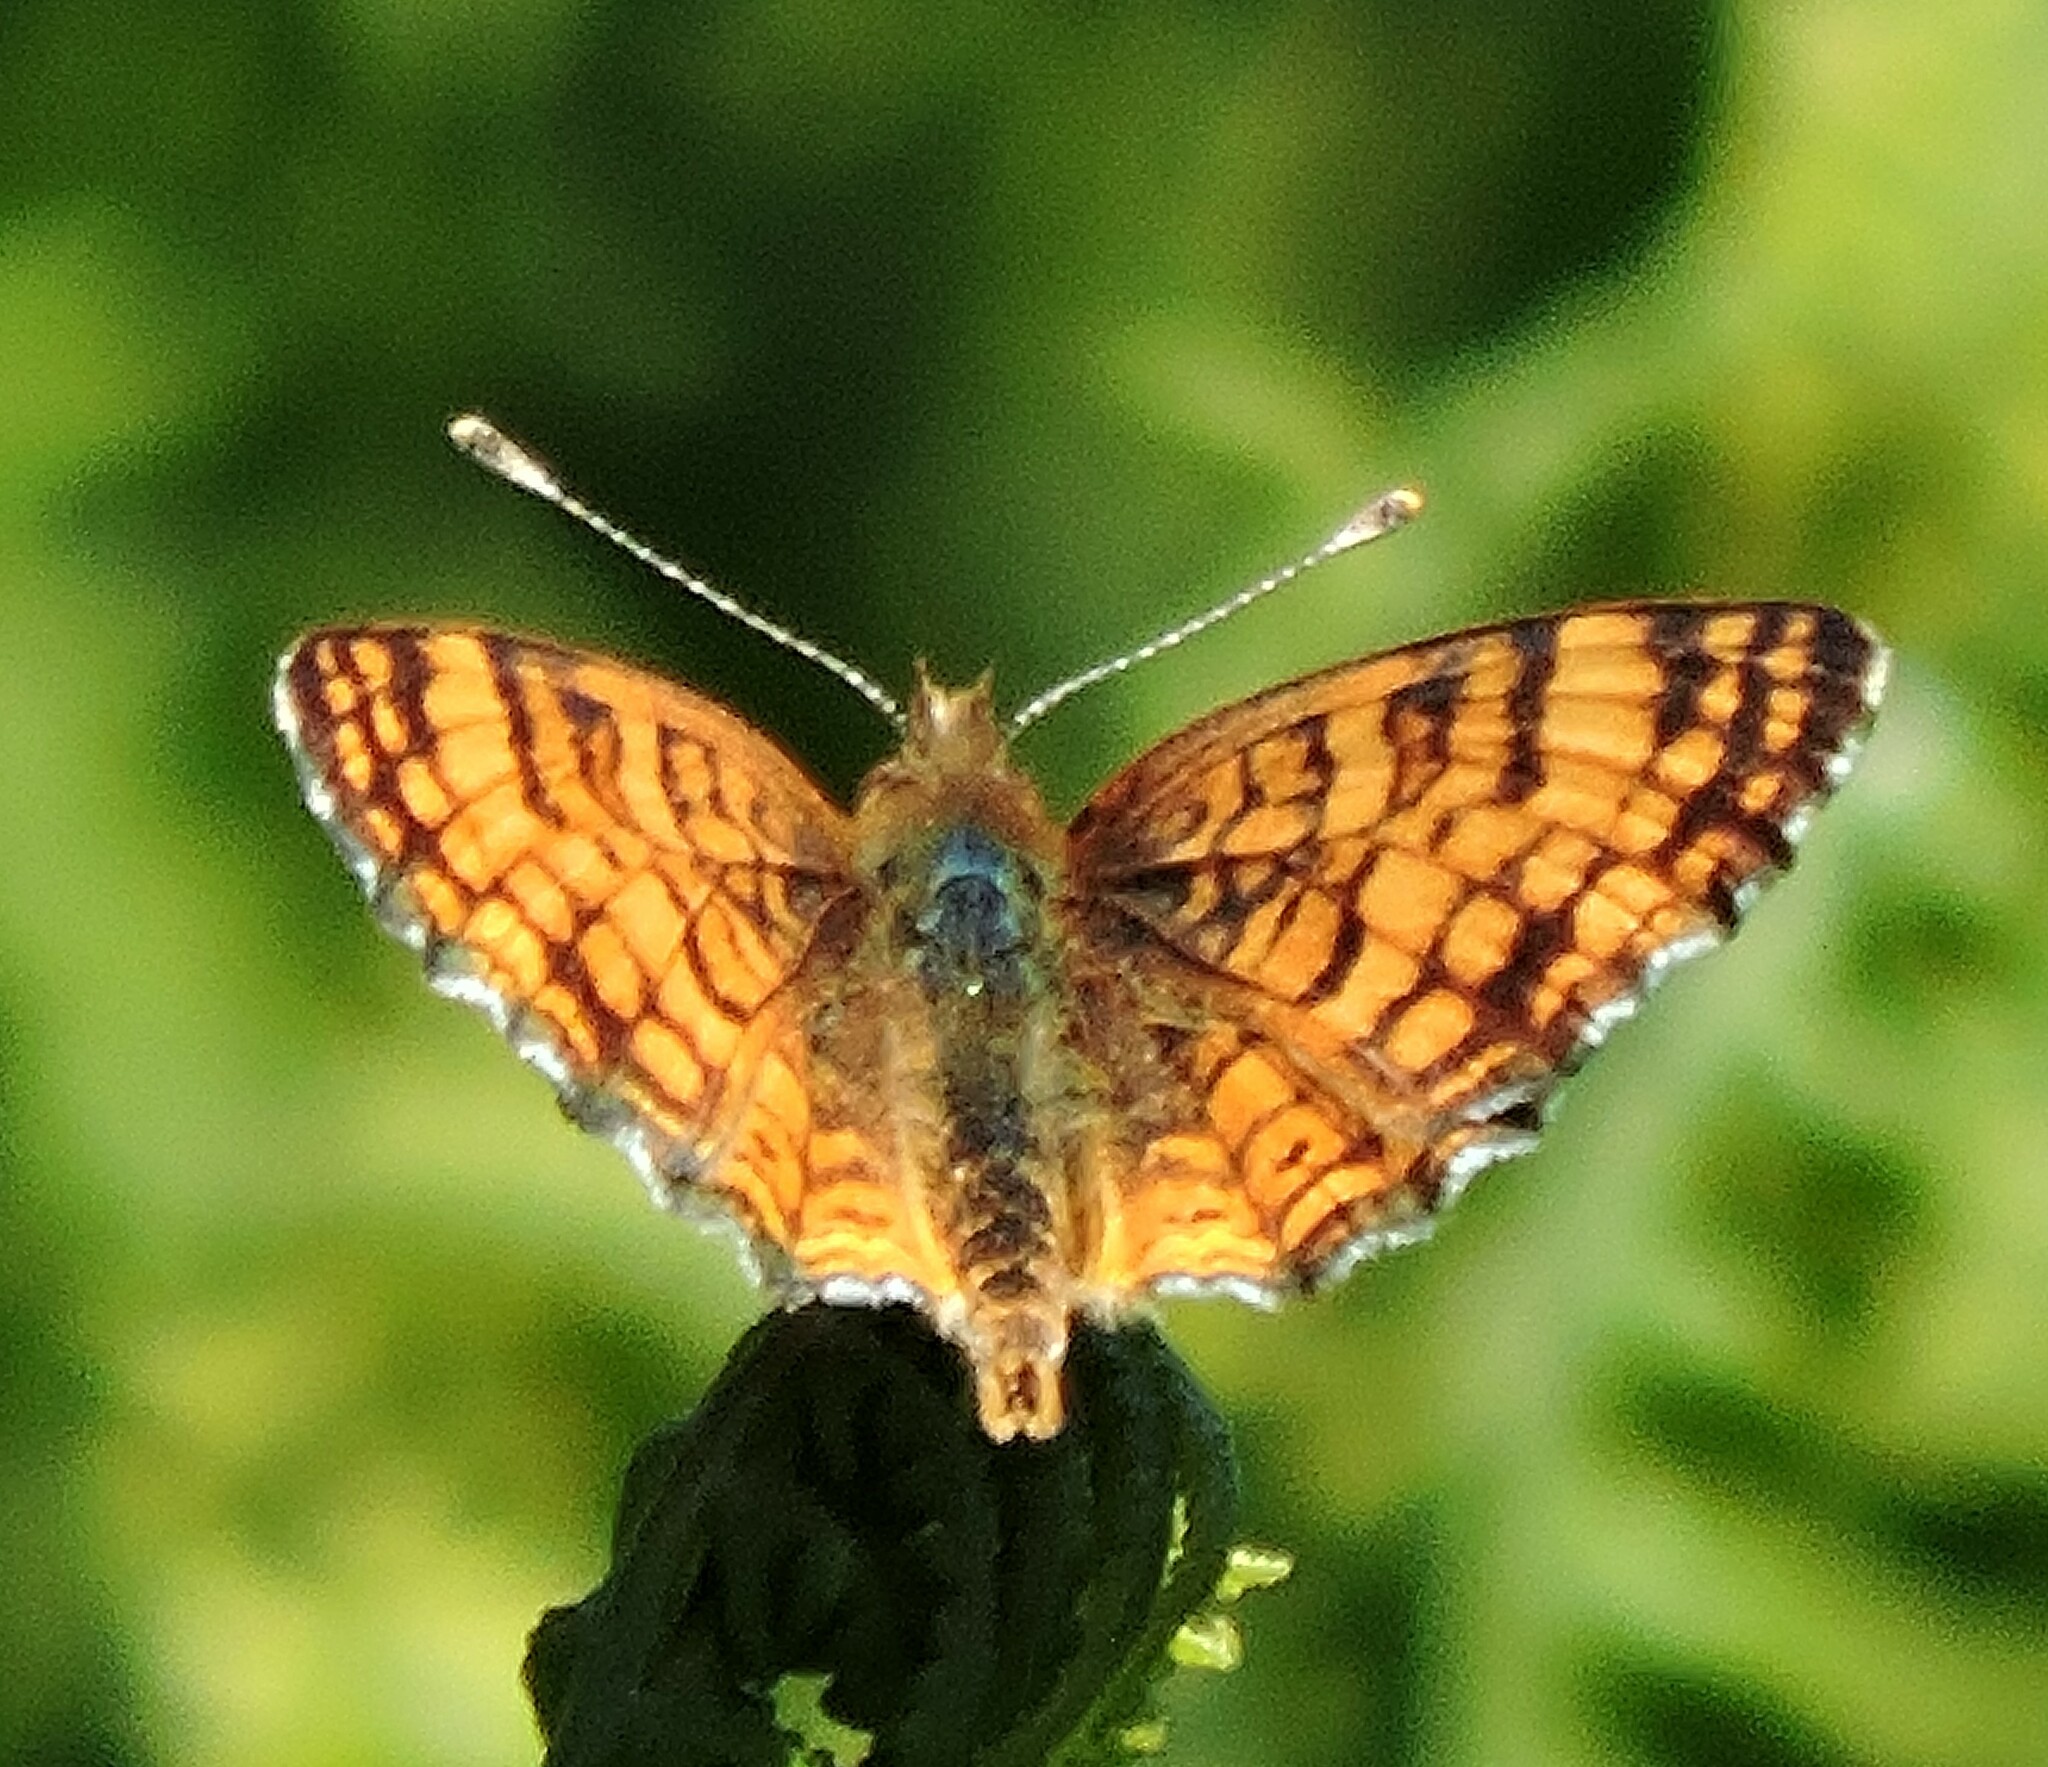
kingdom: Animalia
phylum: Arthropoda
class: Insecta
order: Lepidoptera
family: Nymphalidae
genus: Eresia
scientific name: Eresia aveyrona
